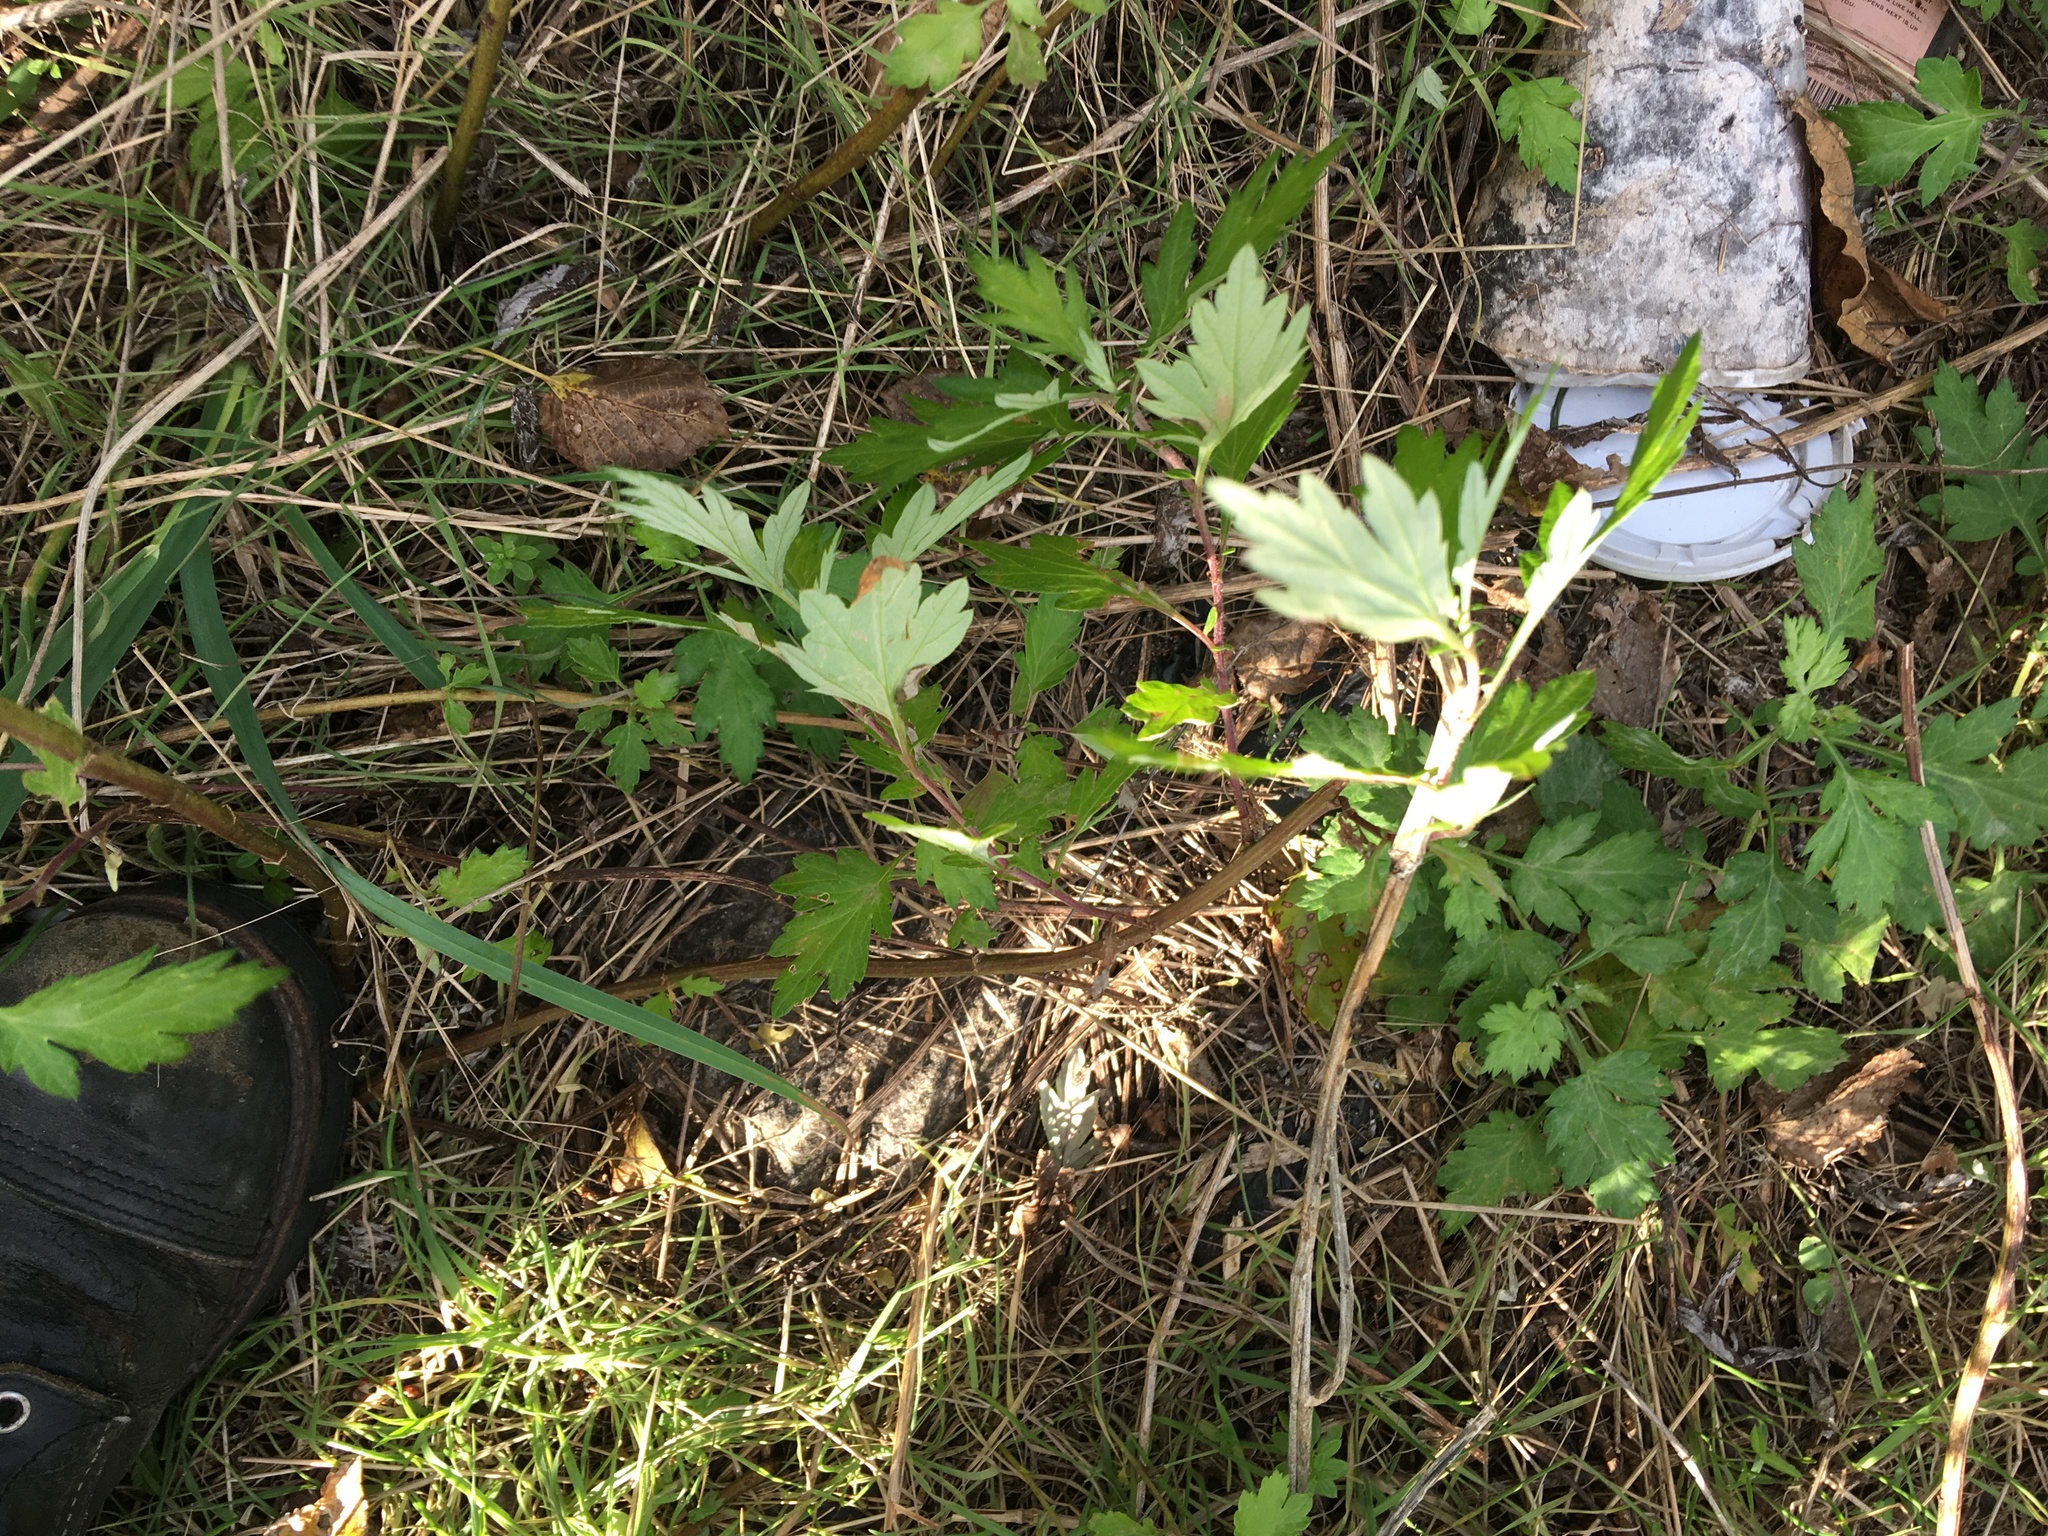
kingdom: Plantae
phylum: Tracheophyta
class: Magnoliopsida
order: Asterales
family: Asteraceae
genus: Artemisia
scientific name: Artemisia vulgaris
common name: Mugwort
